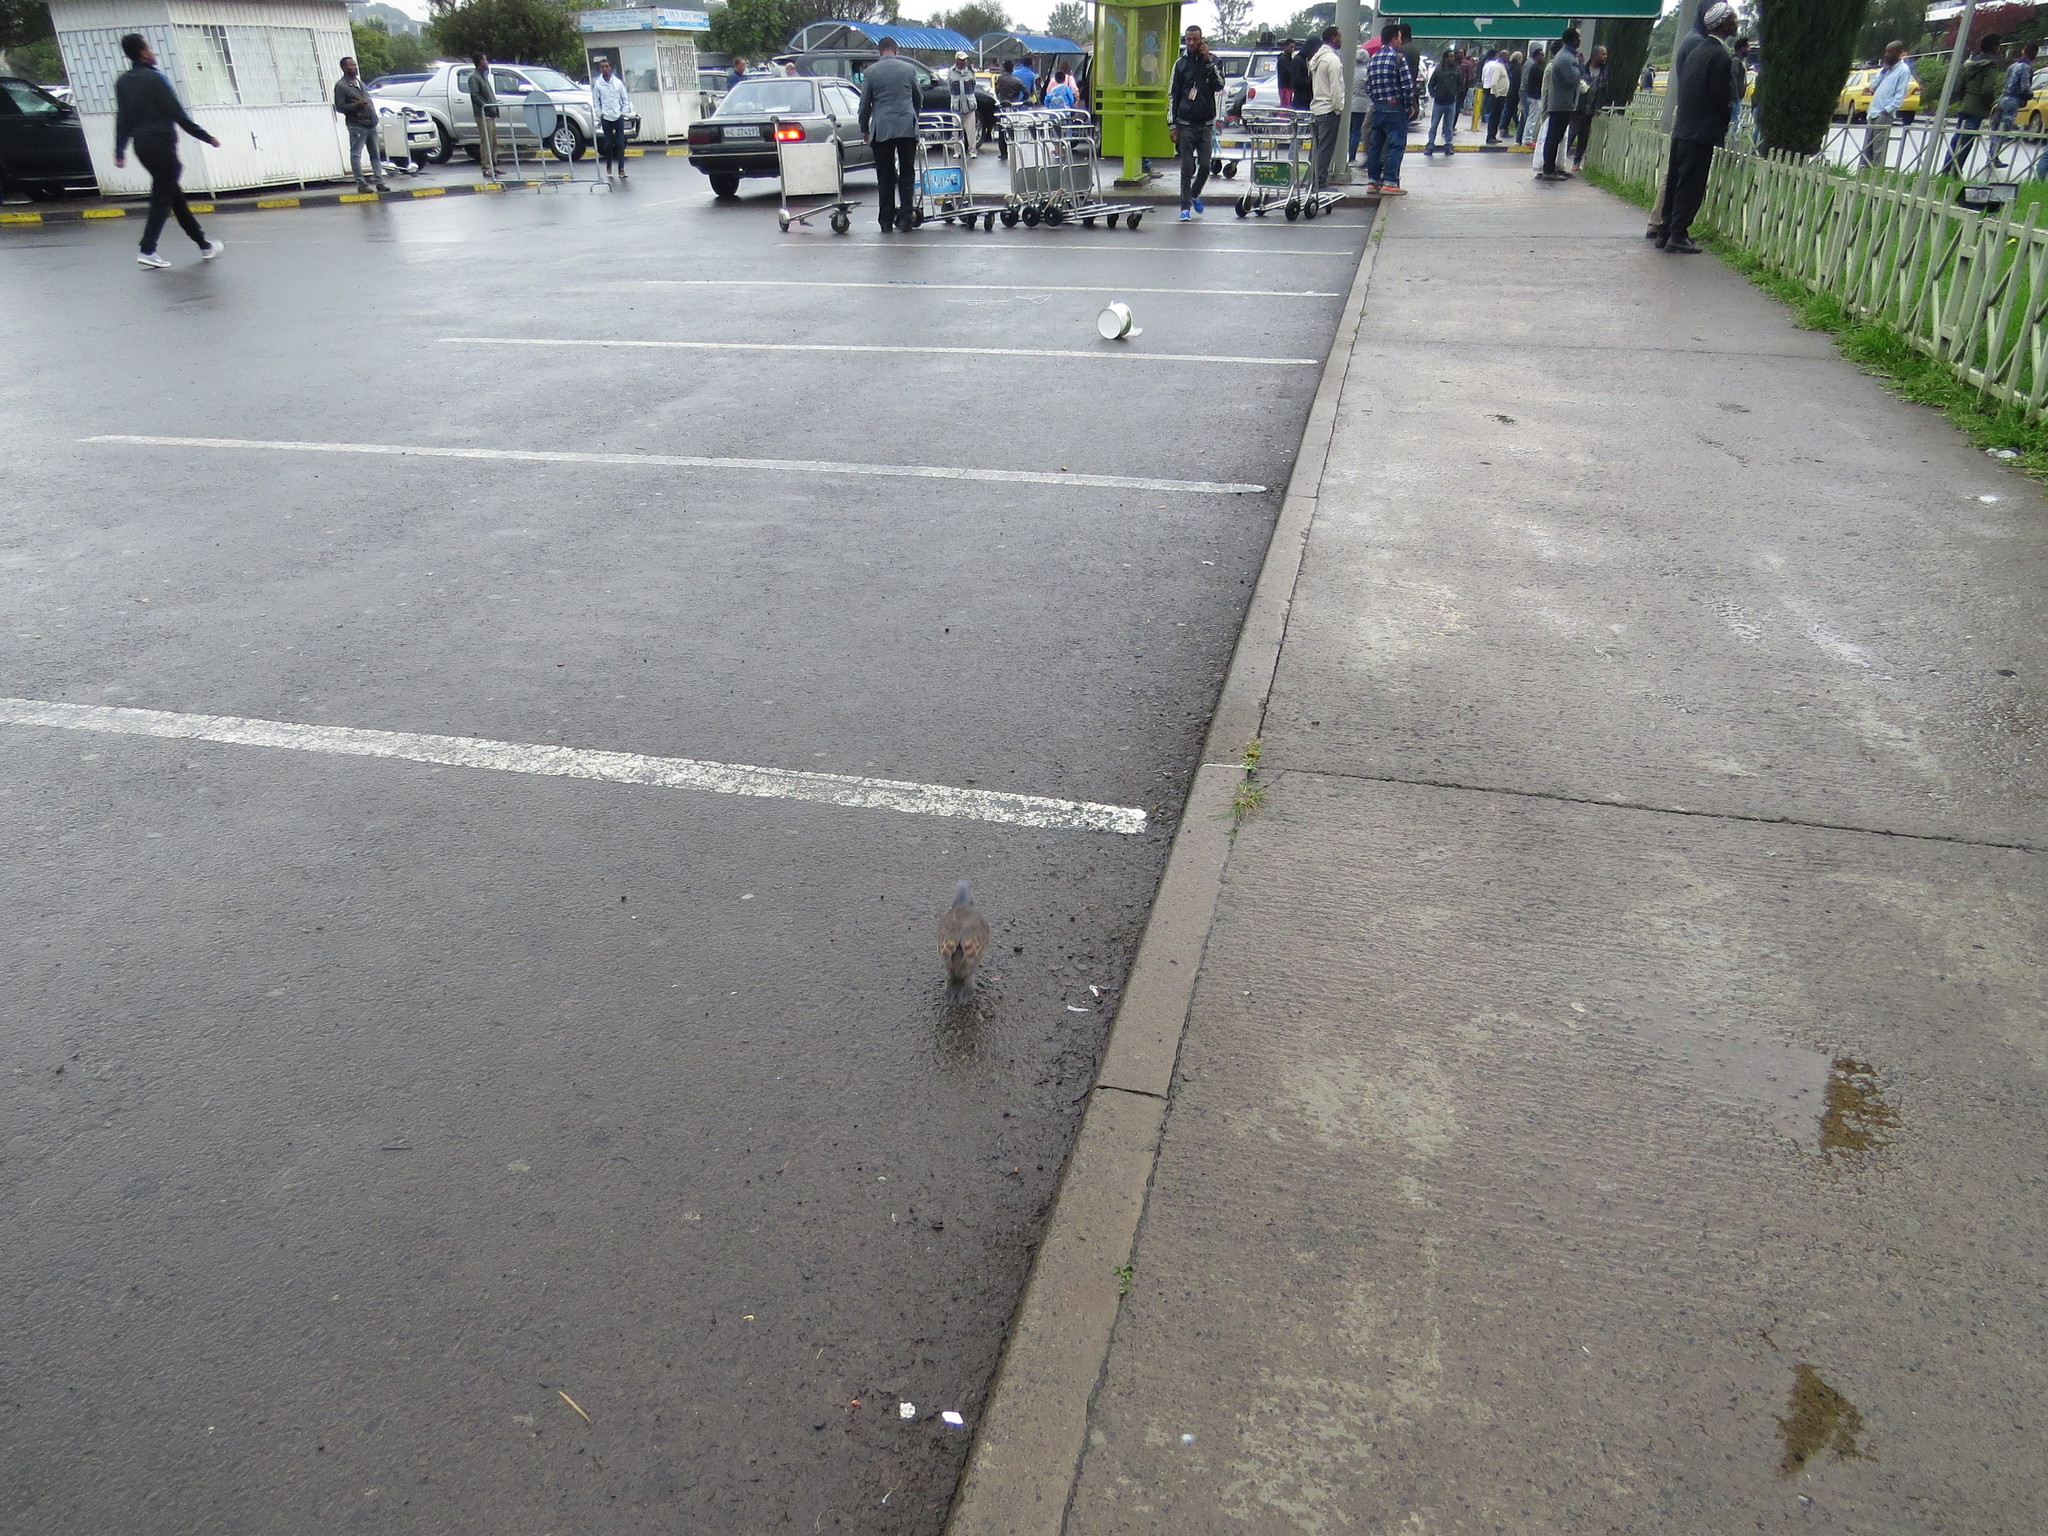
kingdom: Animalia
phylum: Chordata
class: Aves
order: Passeriformes
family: Passeridae
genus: Passer
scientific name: Passer swainsonii
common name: Swainson's sparrow
